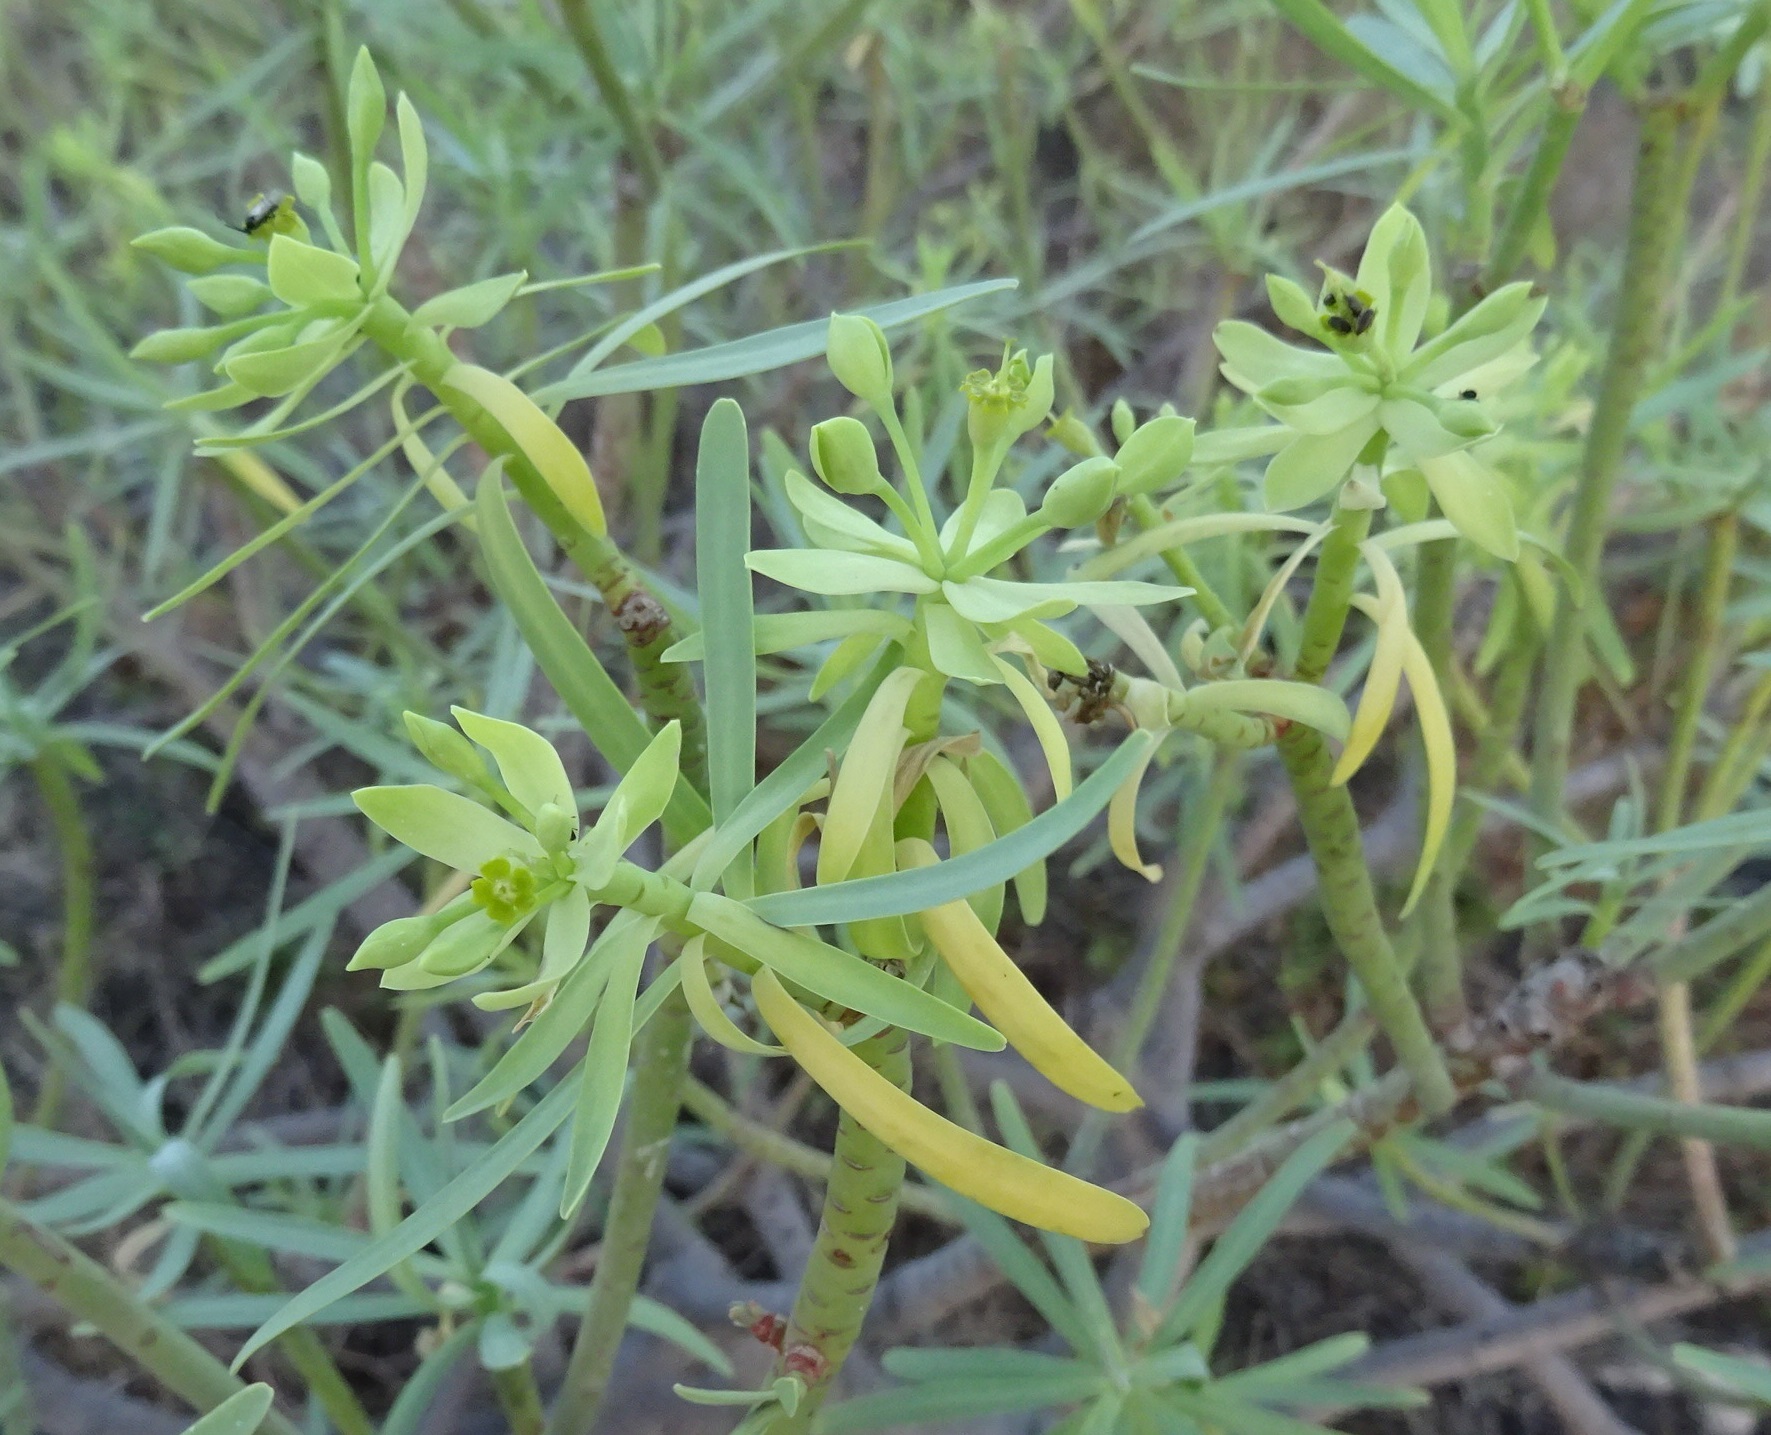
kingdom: Plantae
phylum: Tracheophyta
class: Magnoliopsida
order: Malpighiales
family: Euphorbiaceae
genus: Euphorbia
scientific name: Euphorbia regis-jubae
